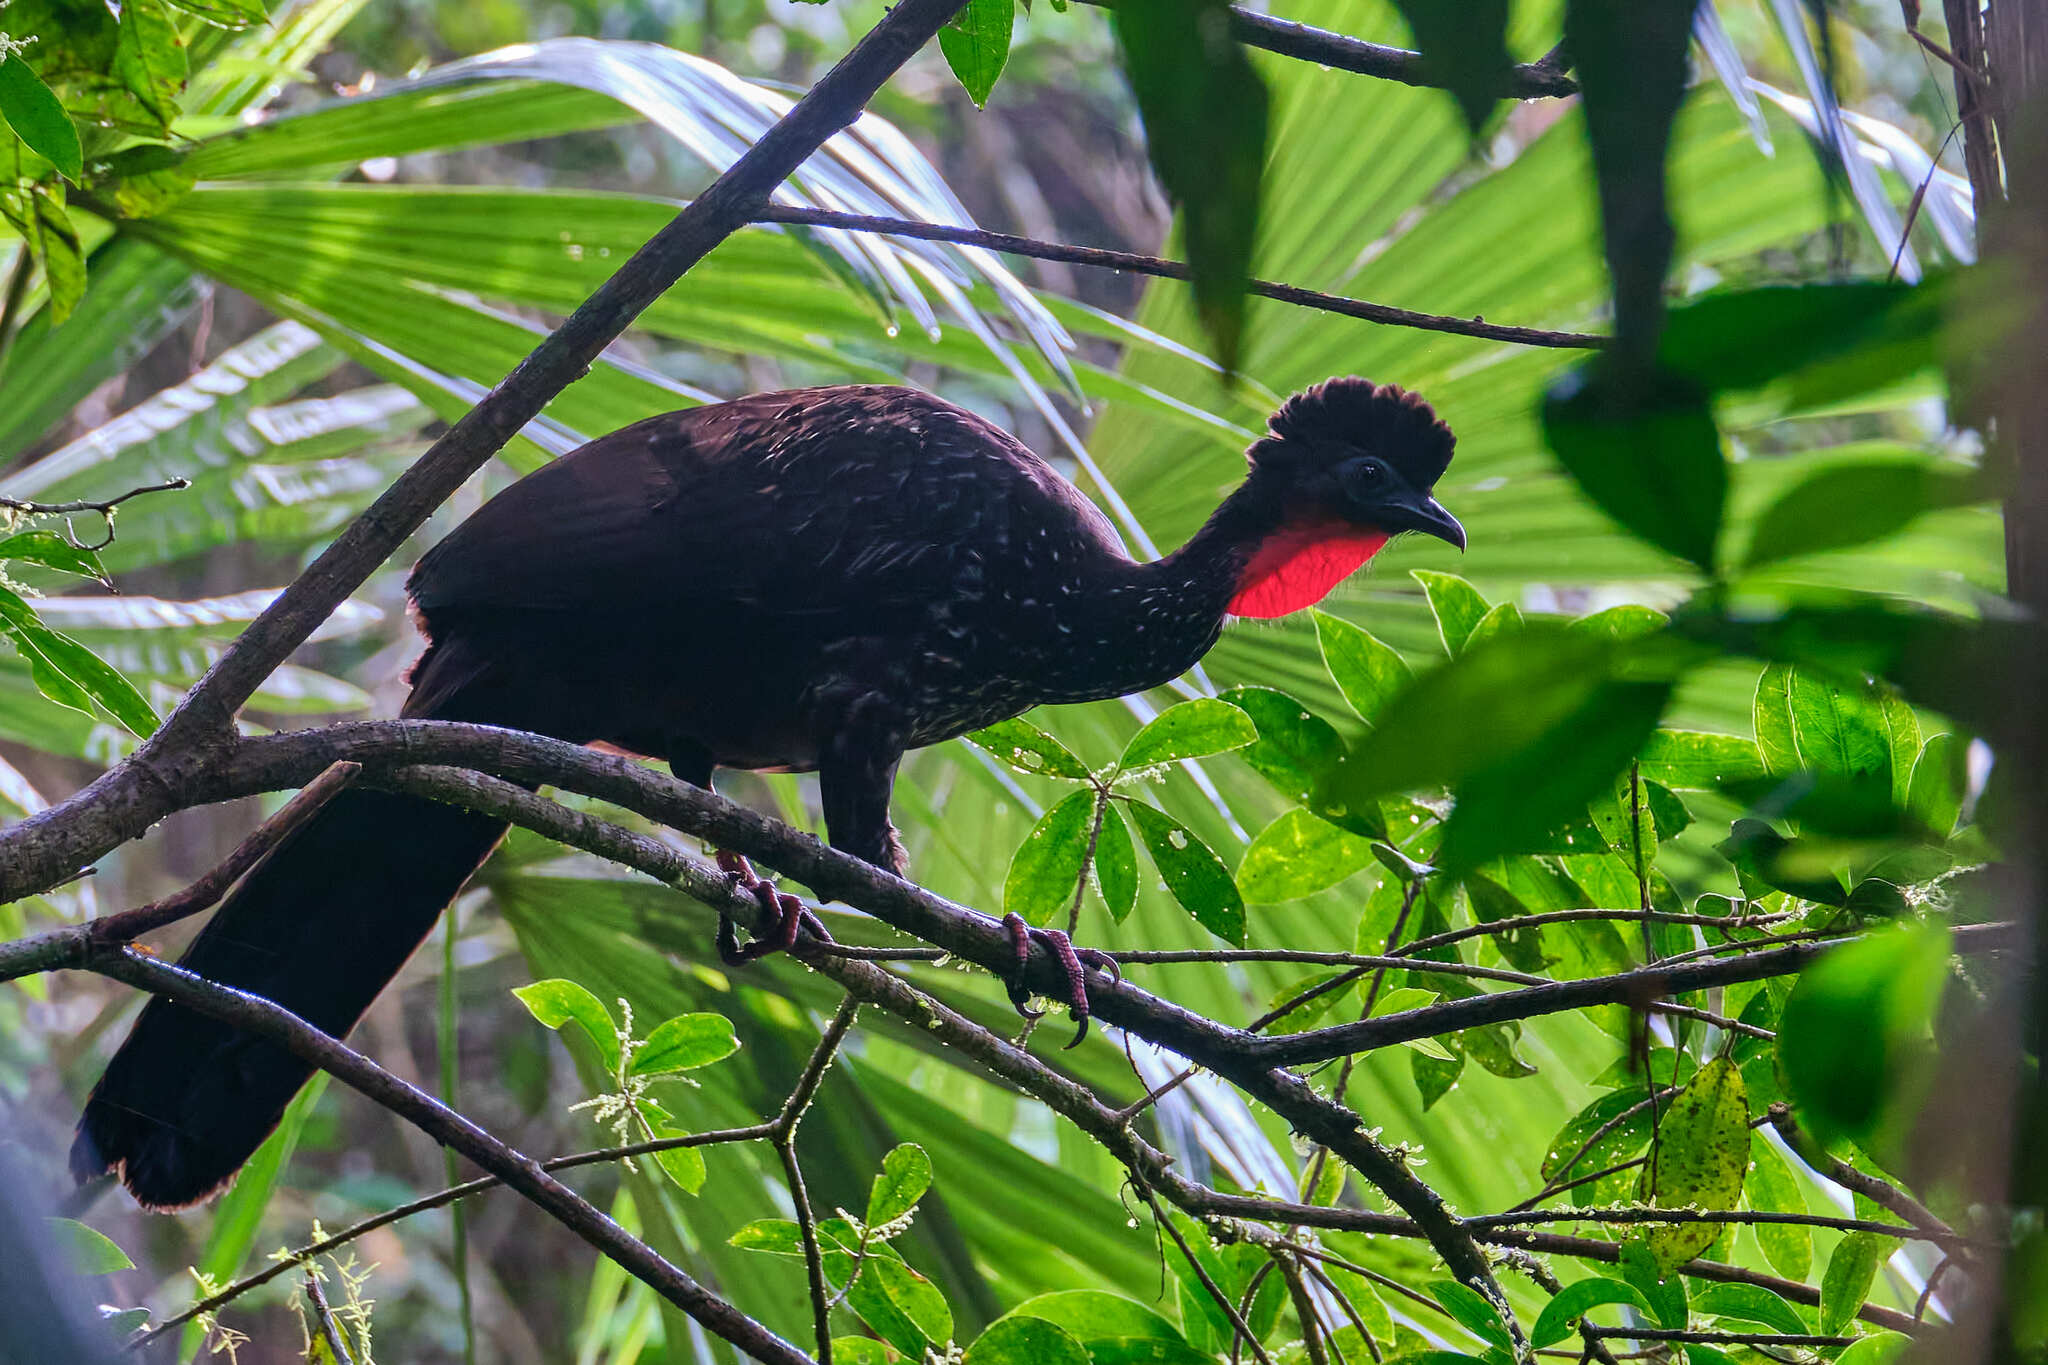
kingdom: Animalia
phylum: Chordata
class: Aves
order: Galliformes
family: Cracidae
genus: Penelope
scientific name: Penelope purpurascens
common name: Crested guan
